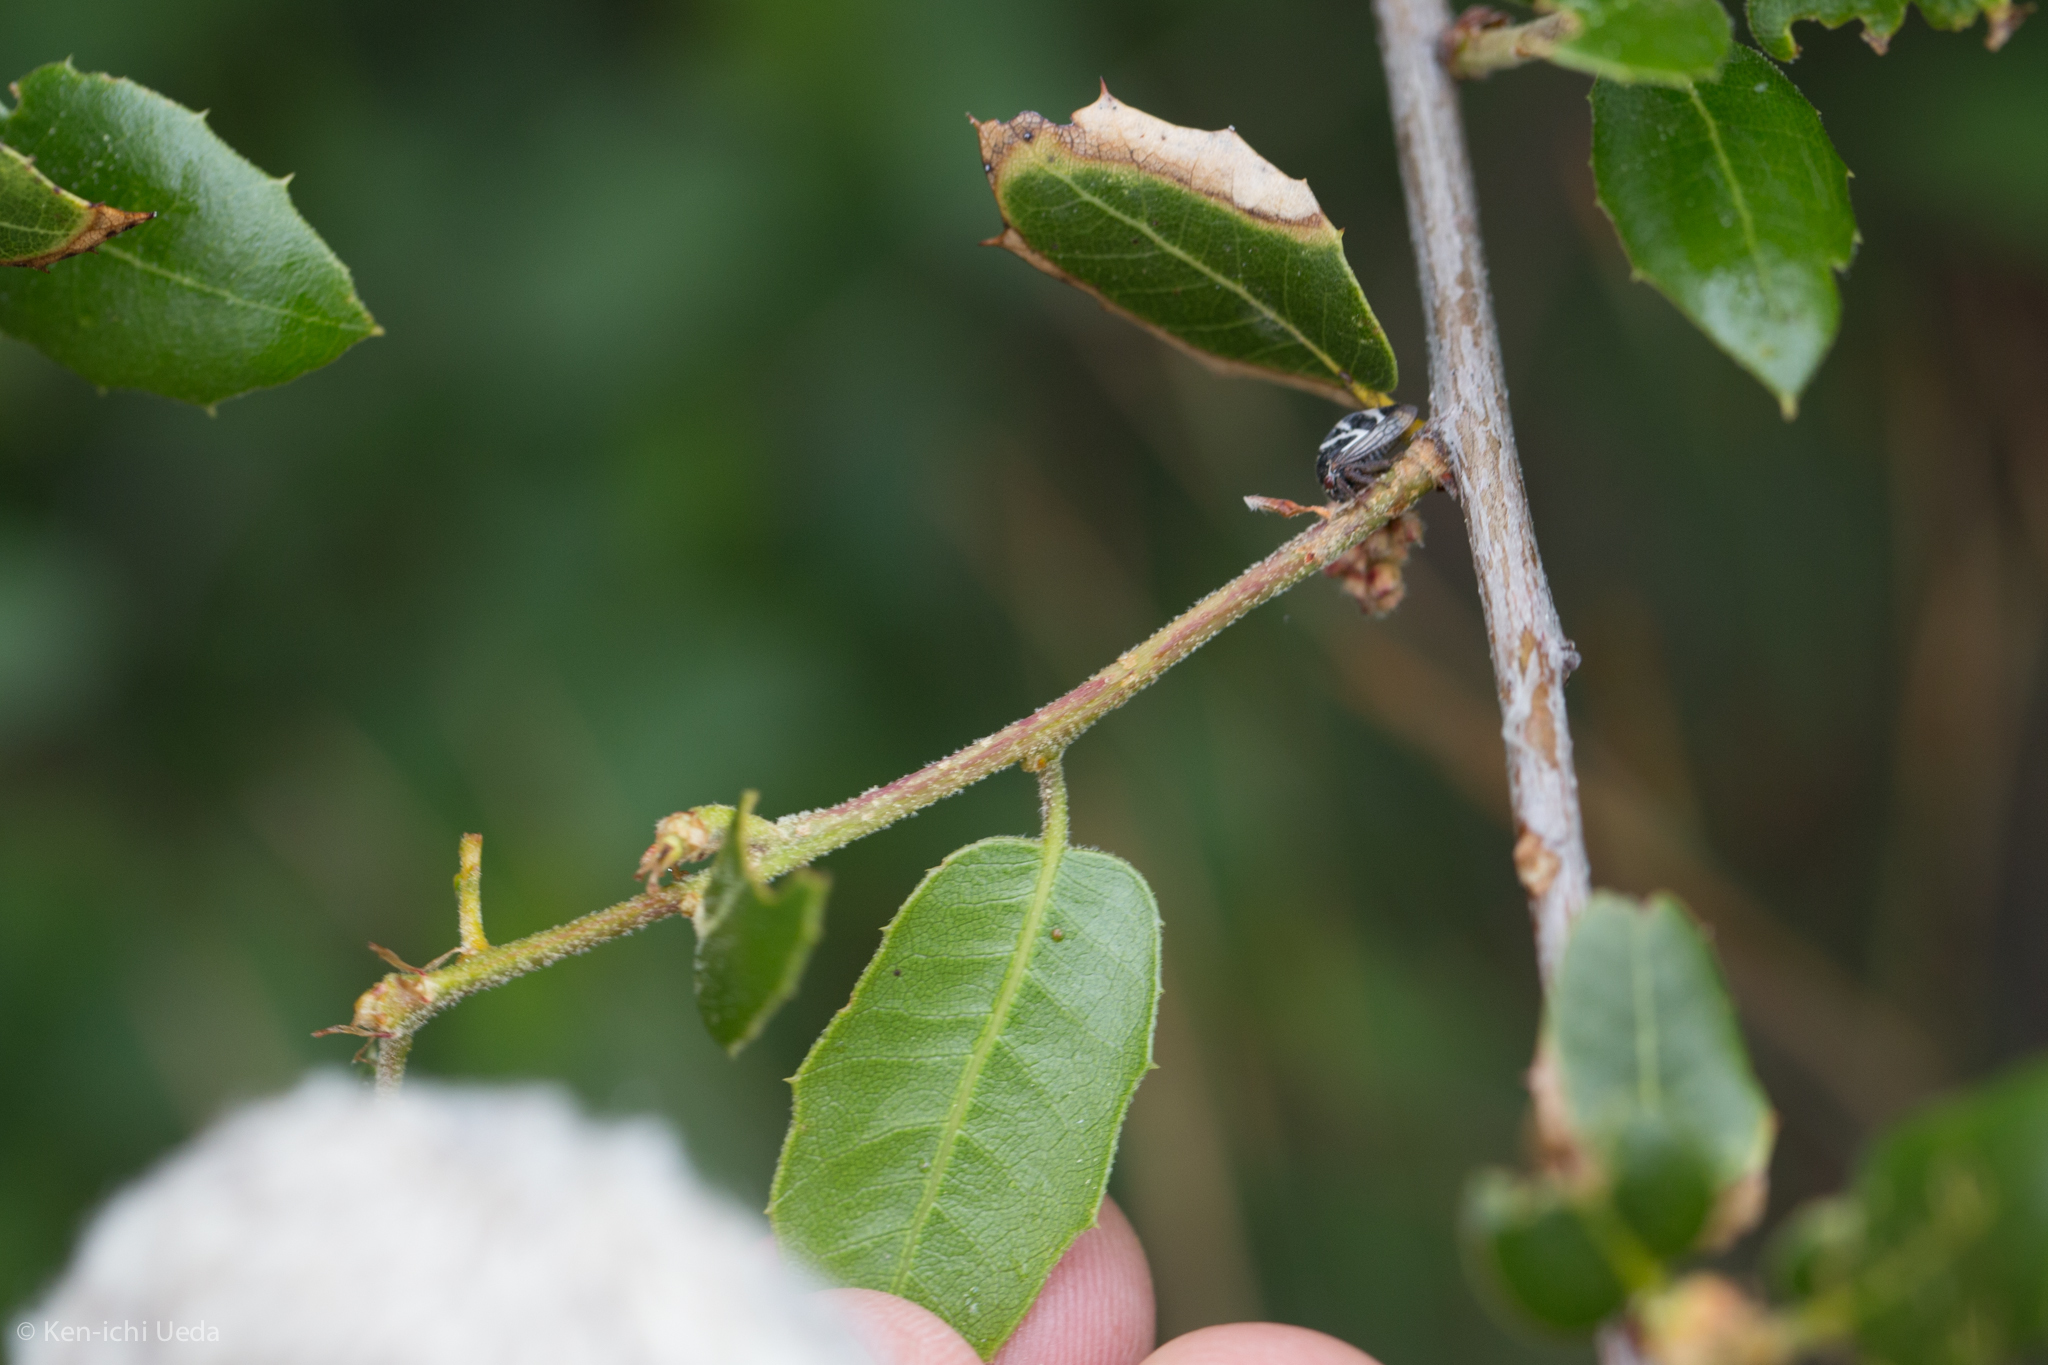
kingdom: Plantae
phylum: Tracheophyta
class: Magnoliopsida
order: Fagales
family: Fagaceae
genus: Quercus
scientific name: Quercus wislizeni
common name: Interior live oak
